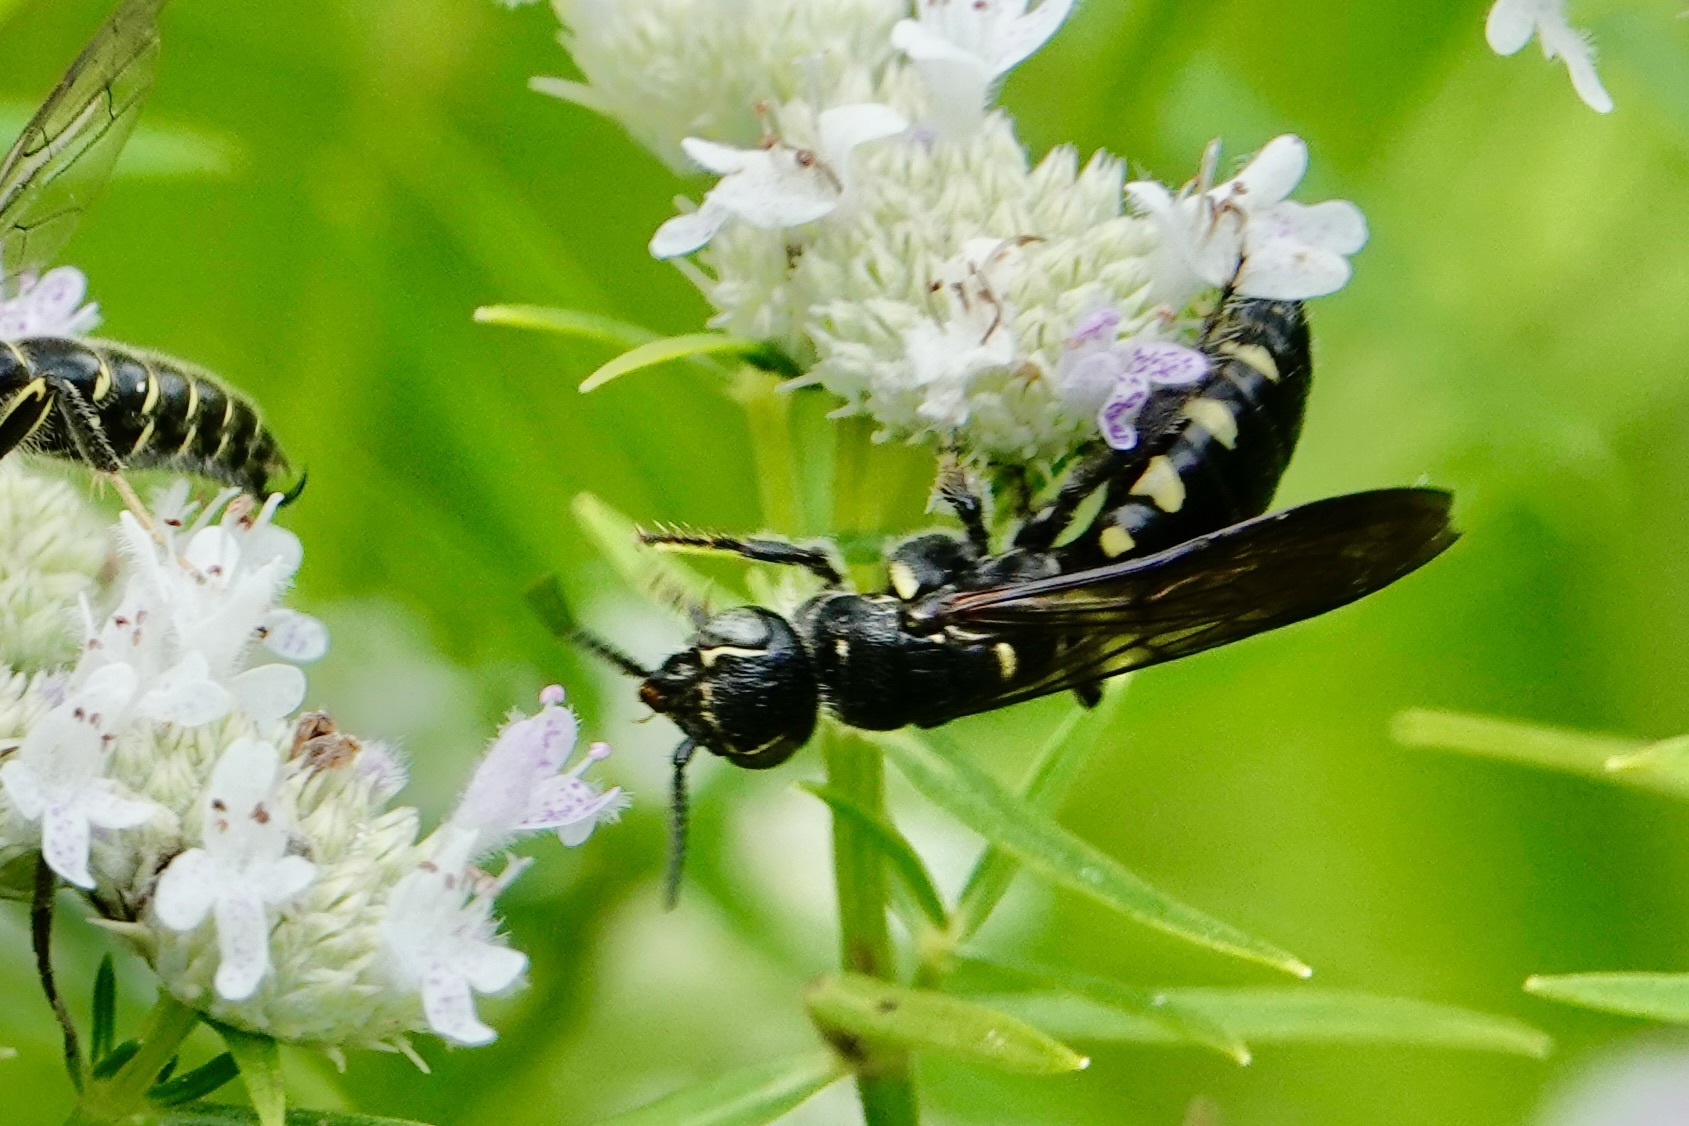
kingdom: Animalia
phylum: Arthropoda
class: Insecta
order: Hymenoptera
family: Tiphiidae
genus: Myzinum
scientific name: Myzinum obscurum
